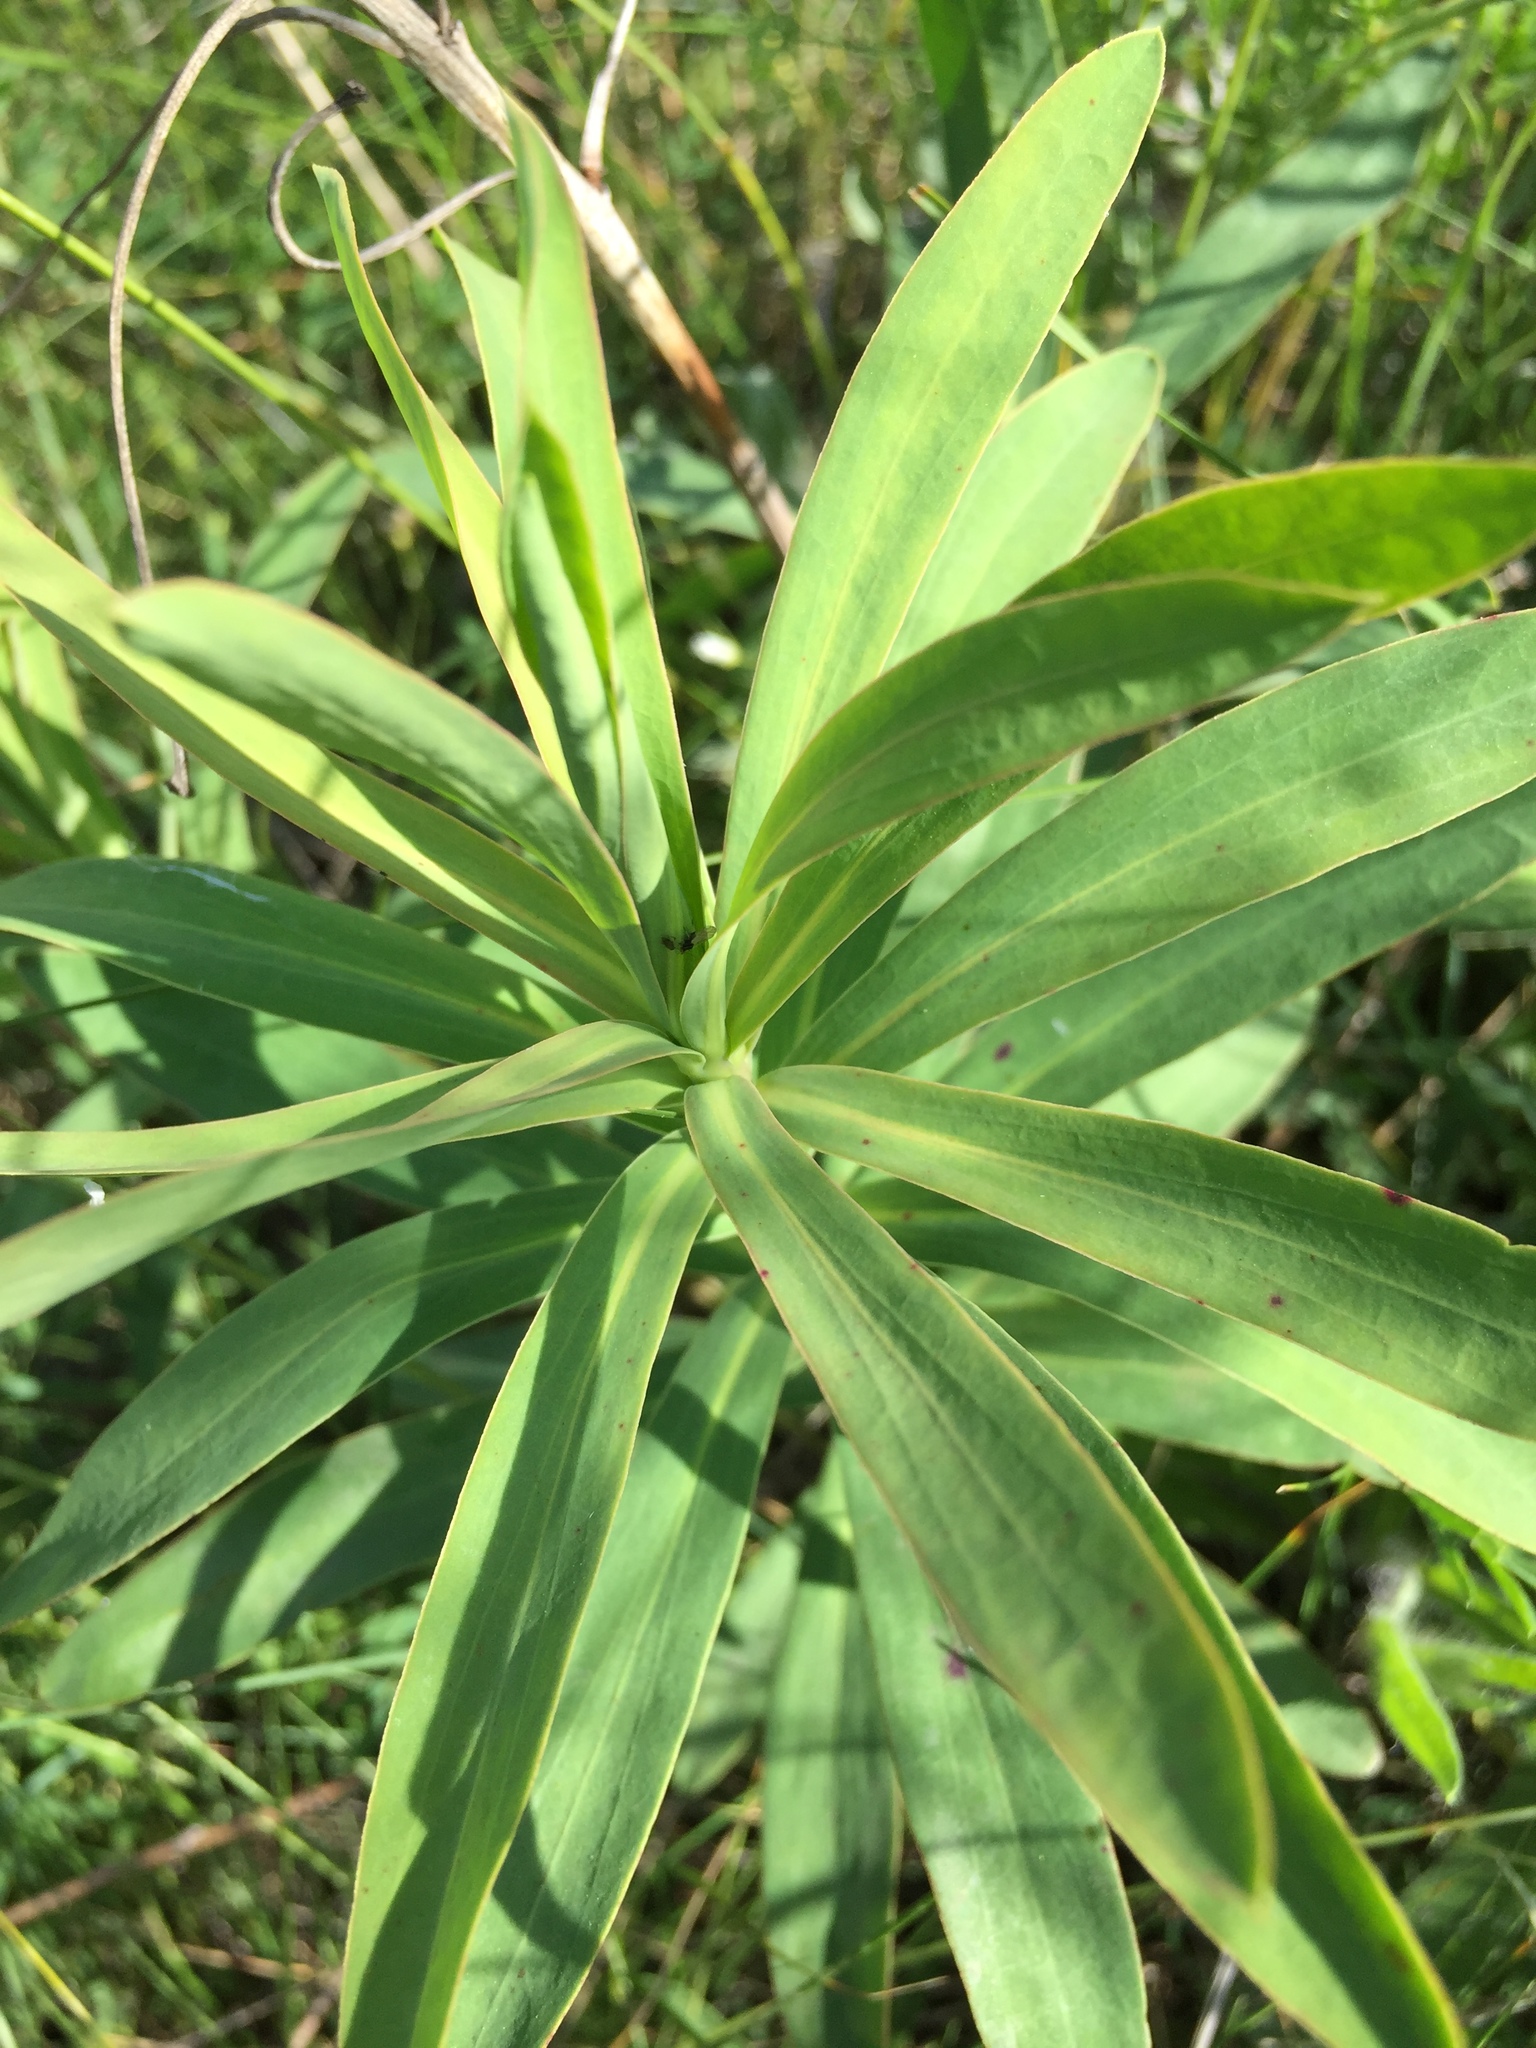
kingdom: Plantae
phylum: Tracheophyta
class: Magnoliopsida
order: Malpighiales
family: Euphorbiaceae
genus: Euphorbia
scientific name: Euphorbia stepposa
